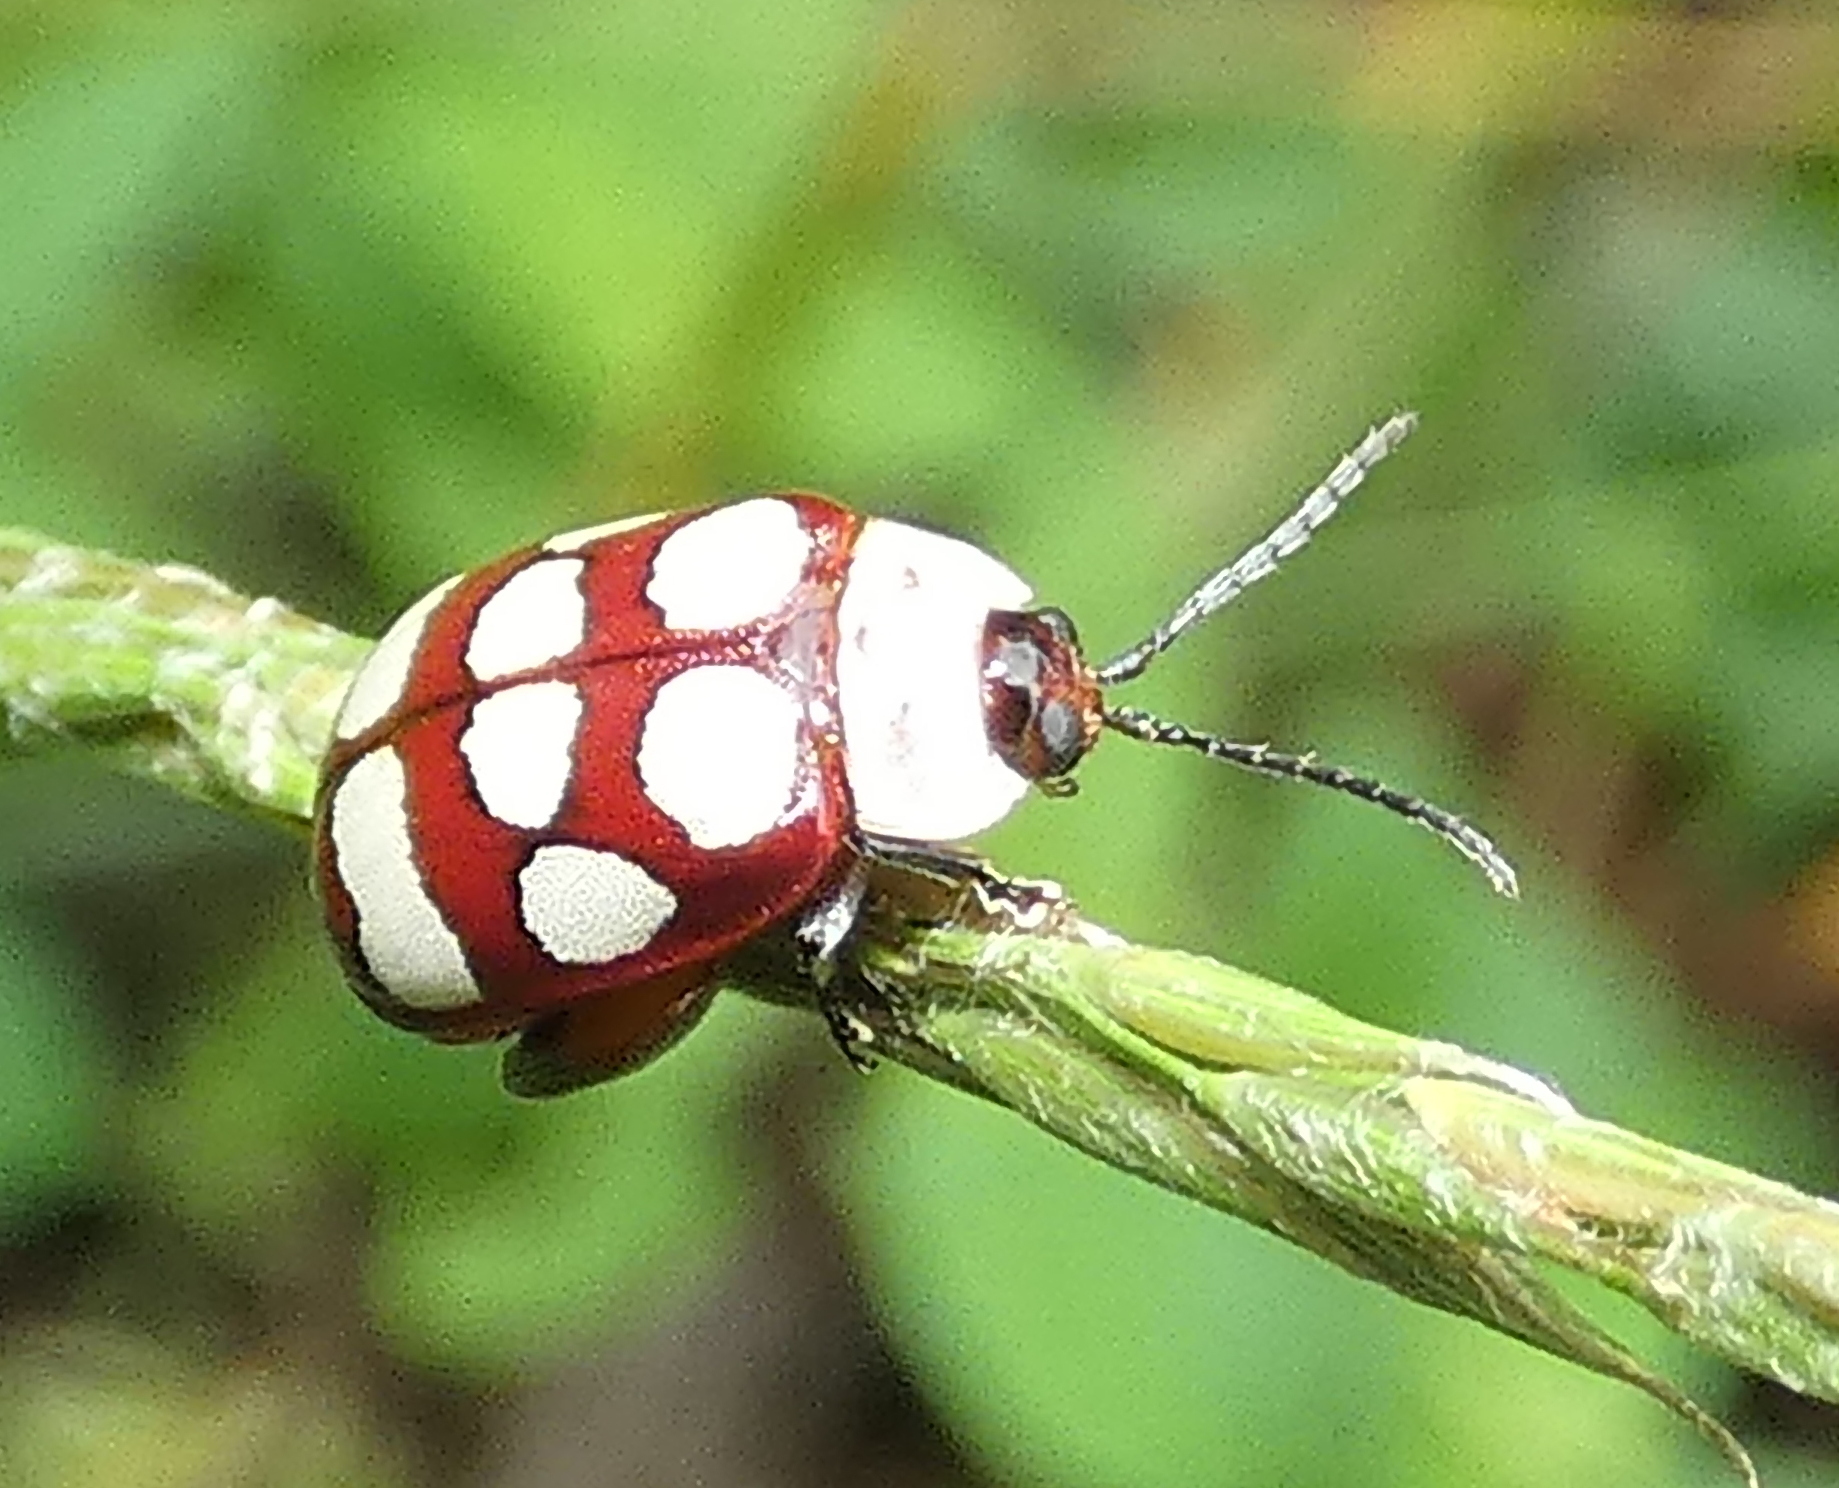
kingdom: Animalia
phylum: Arthropoda
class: Insecta
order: Coleoptera
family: Chrysomelidae
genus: Alagoasa
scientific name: Alagoasa decemguttata
